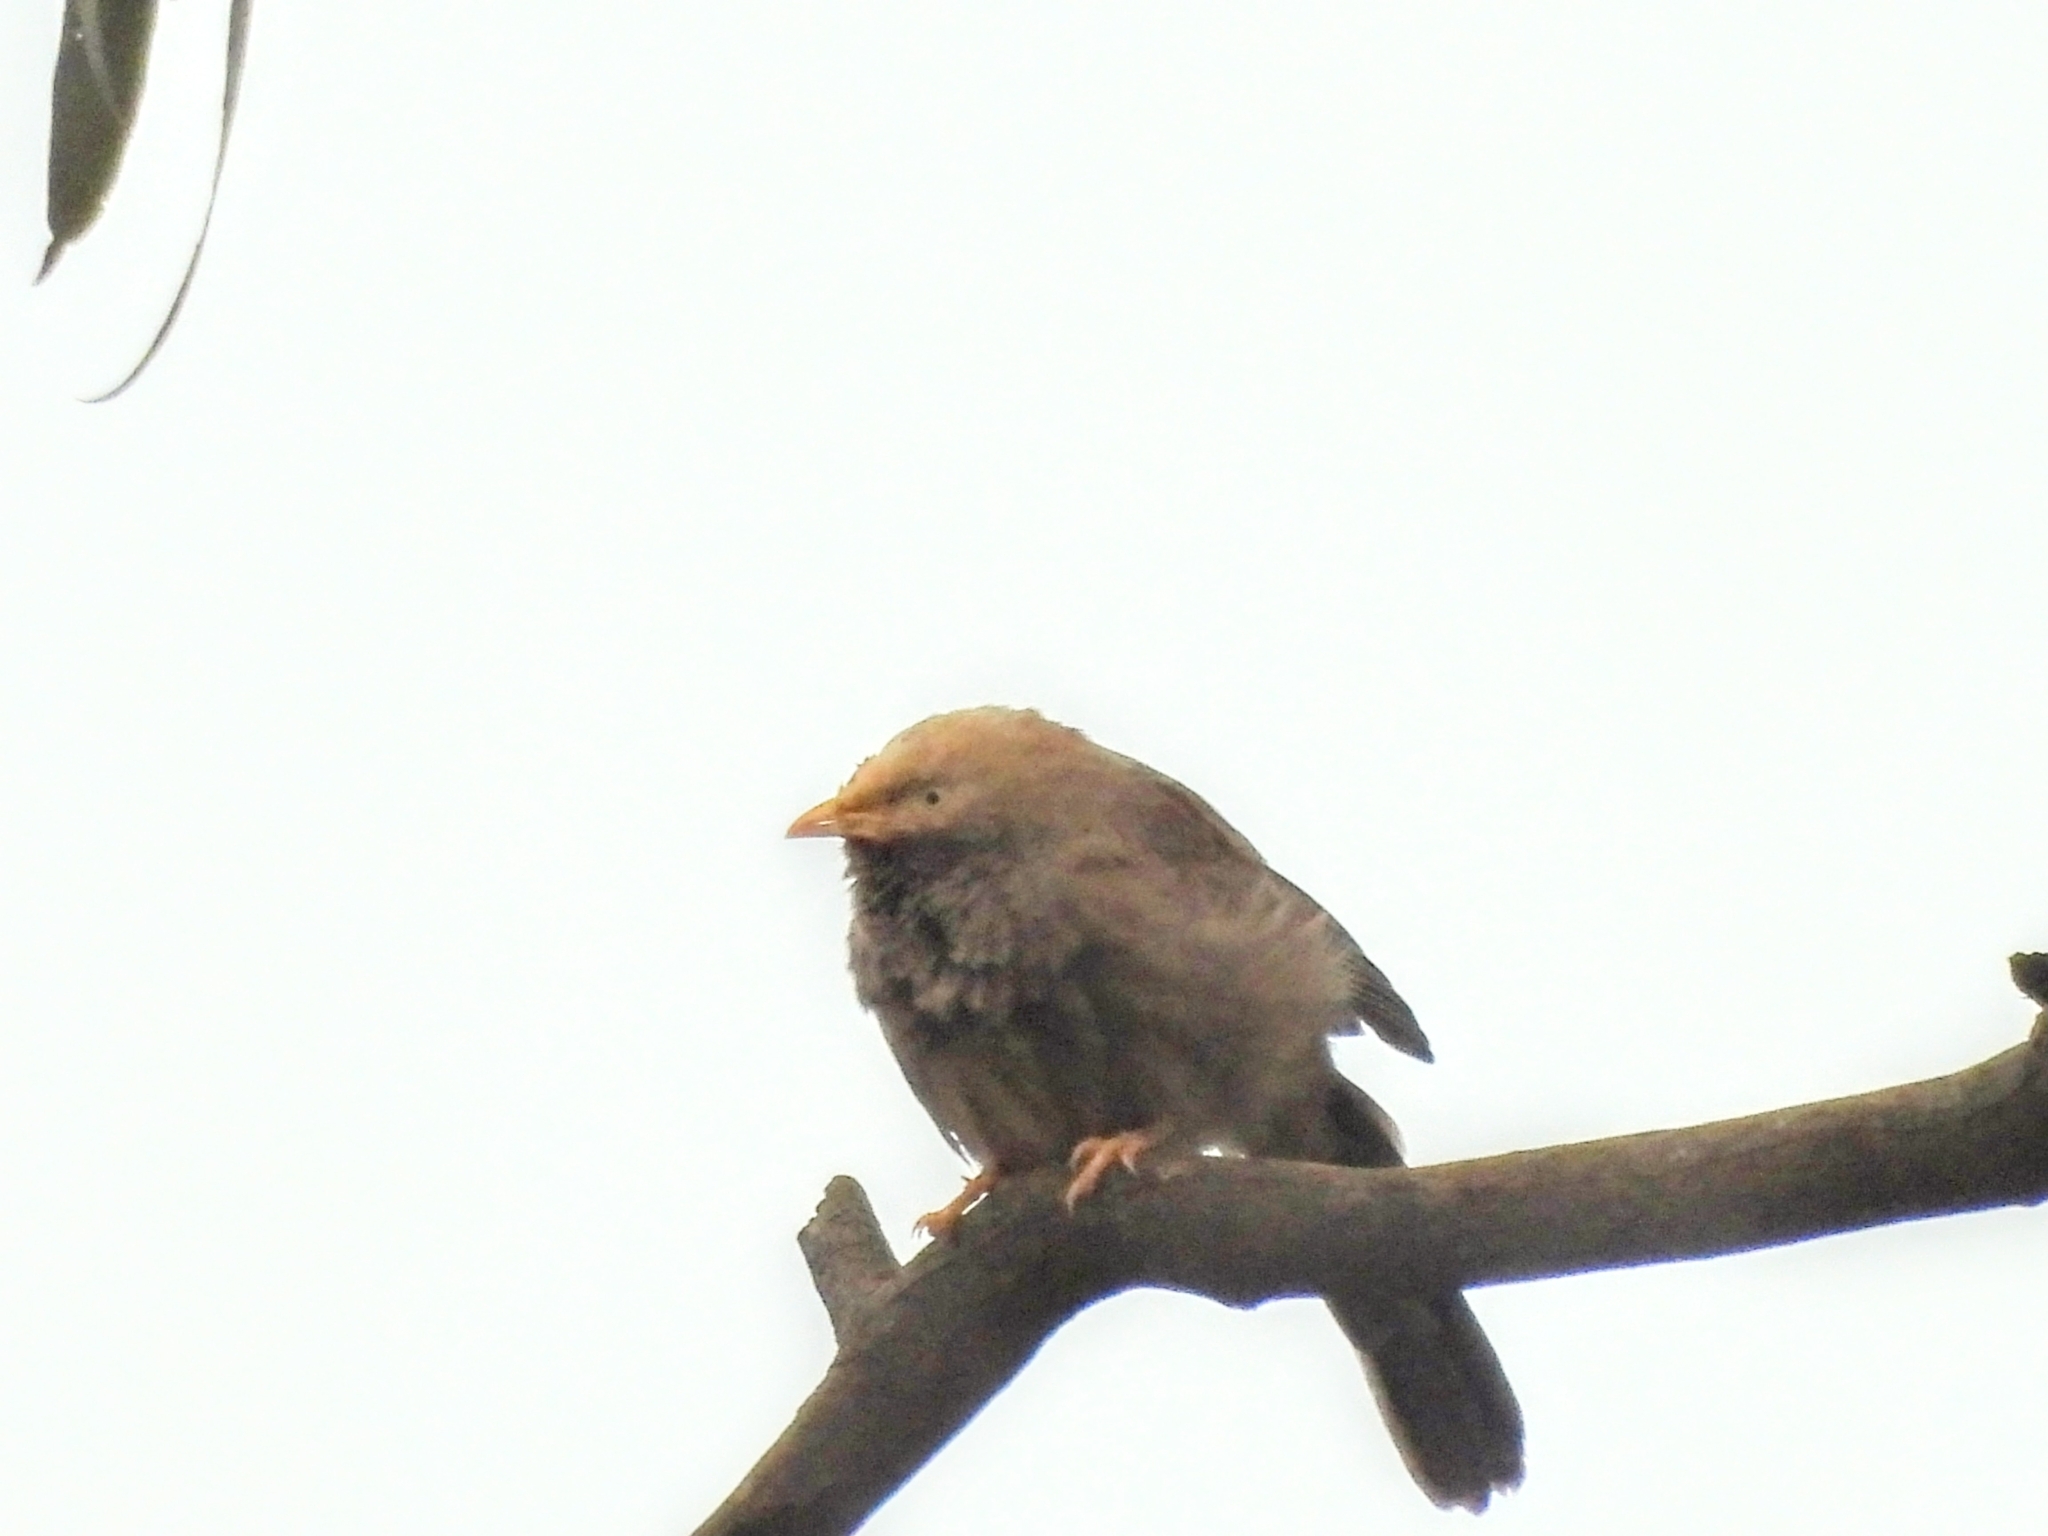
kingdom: Animalia
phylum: Chordata
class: Aves
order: Passeriformes
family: Leiothrichidae
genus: Turdoides
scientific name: Turdoides affinis
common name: Yellow-billed babbler
